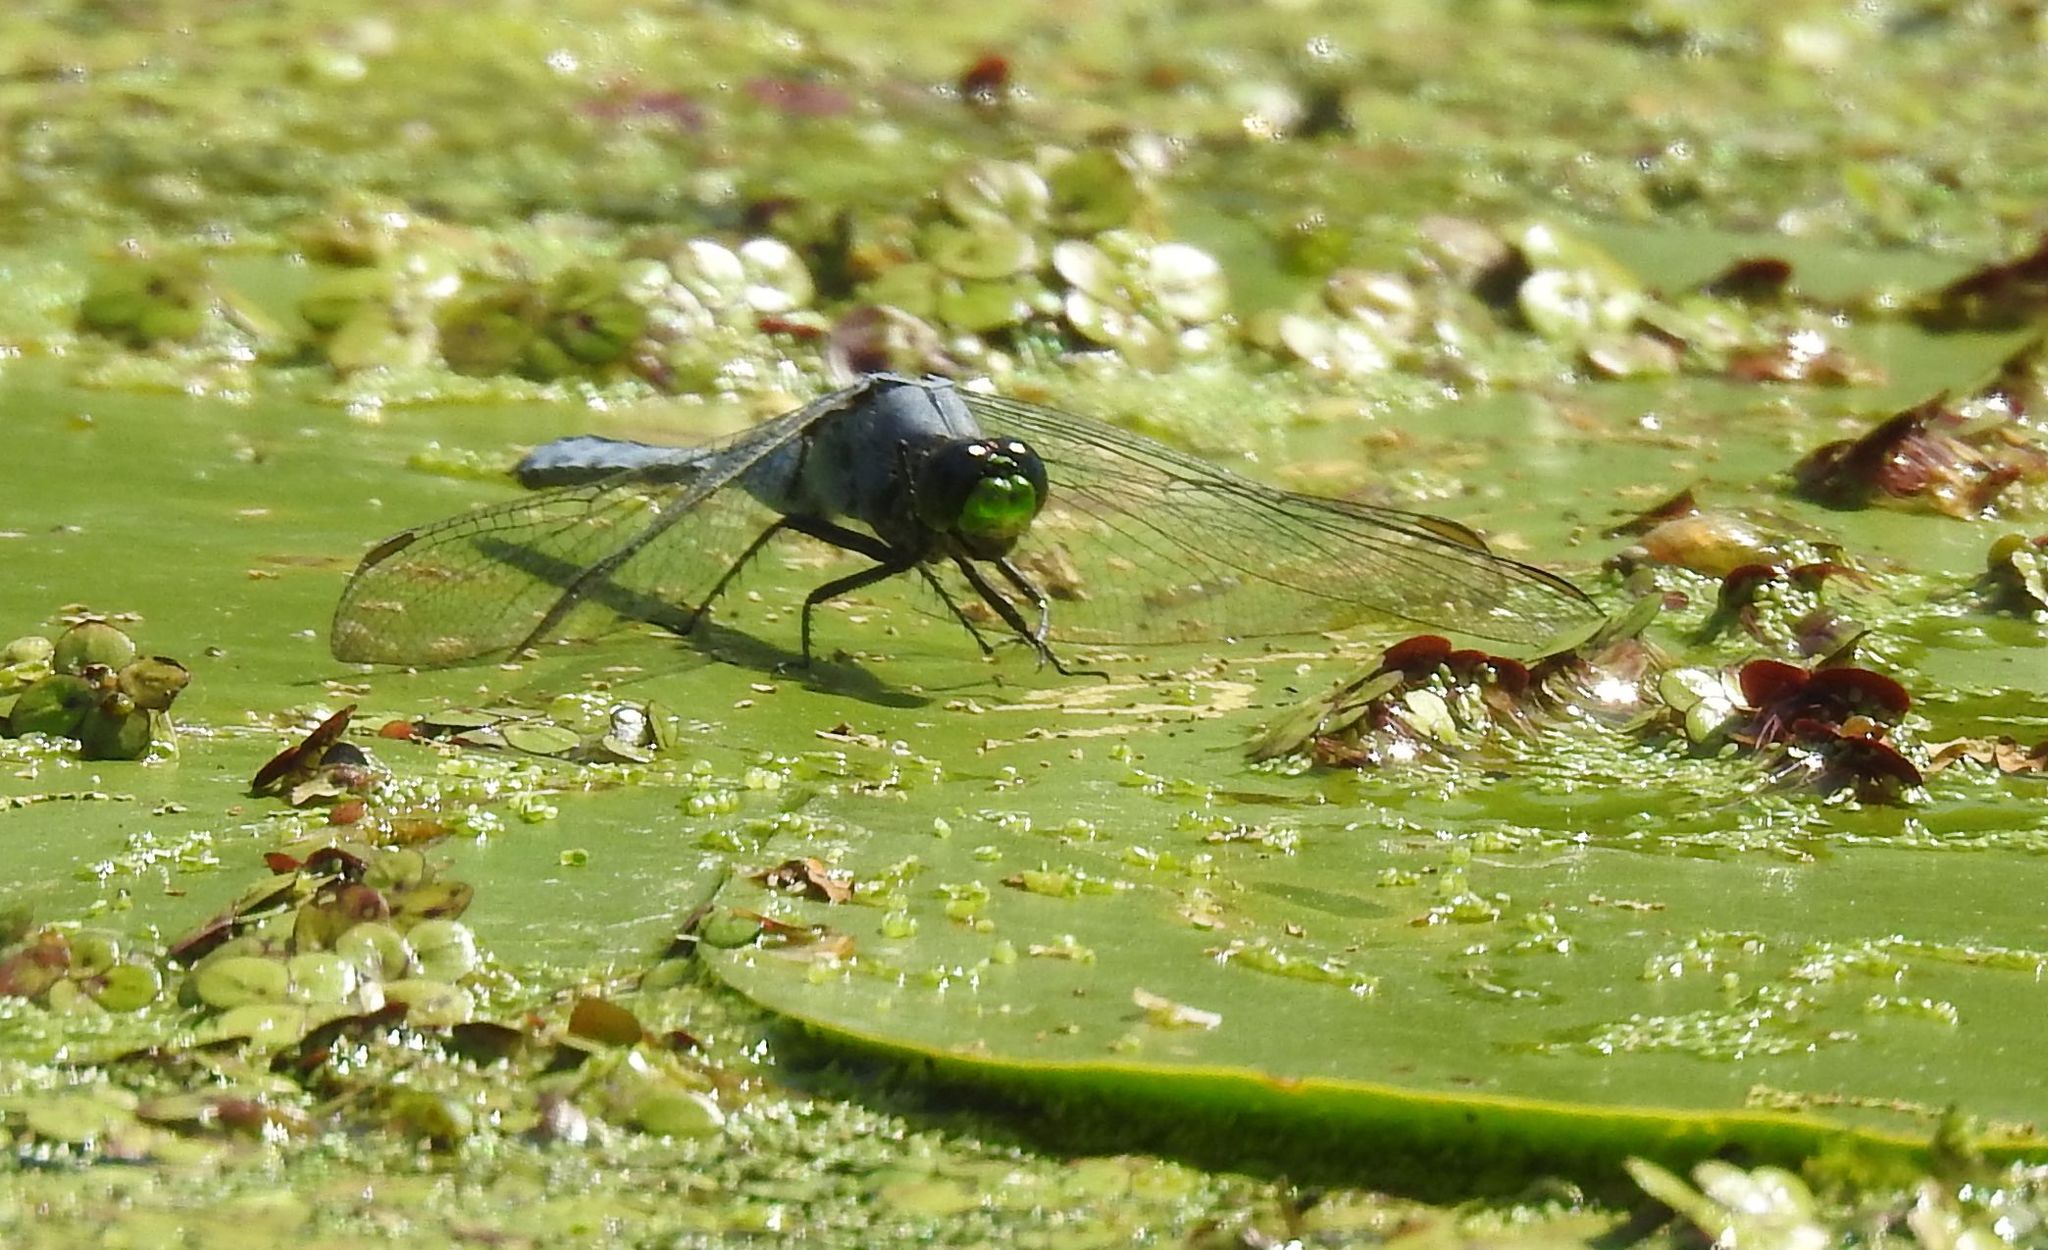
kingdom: Animalia
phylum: Arthropoda
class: Insecta
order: Odonata
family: Libellulidae
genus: Erythemis
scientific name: Erythemis simplicicollis
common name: Eastern pondhawk
